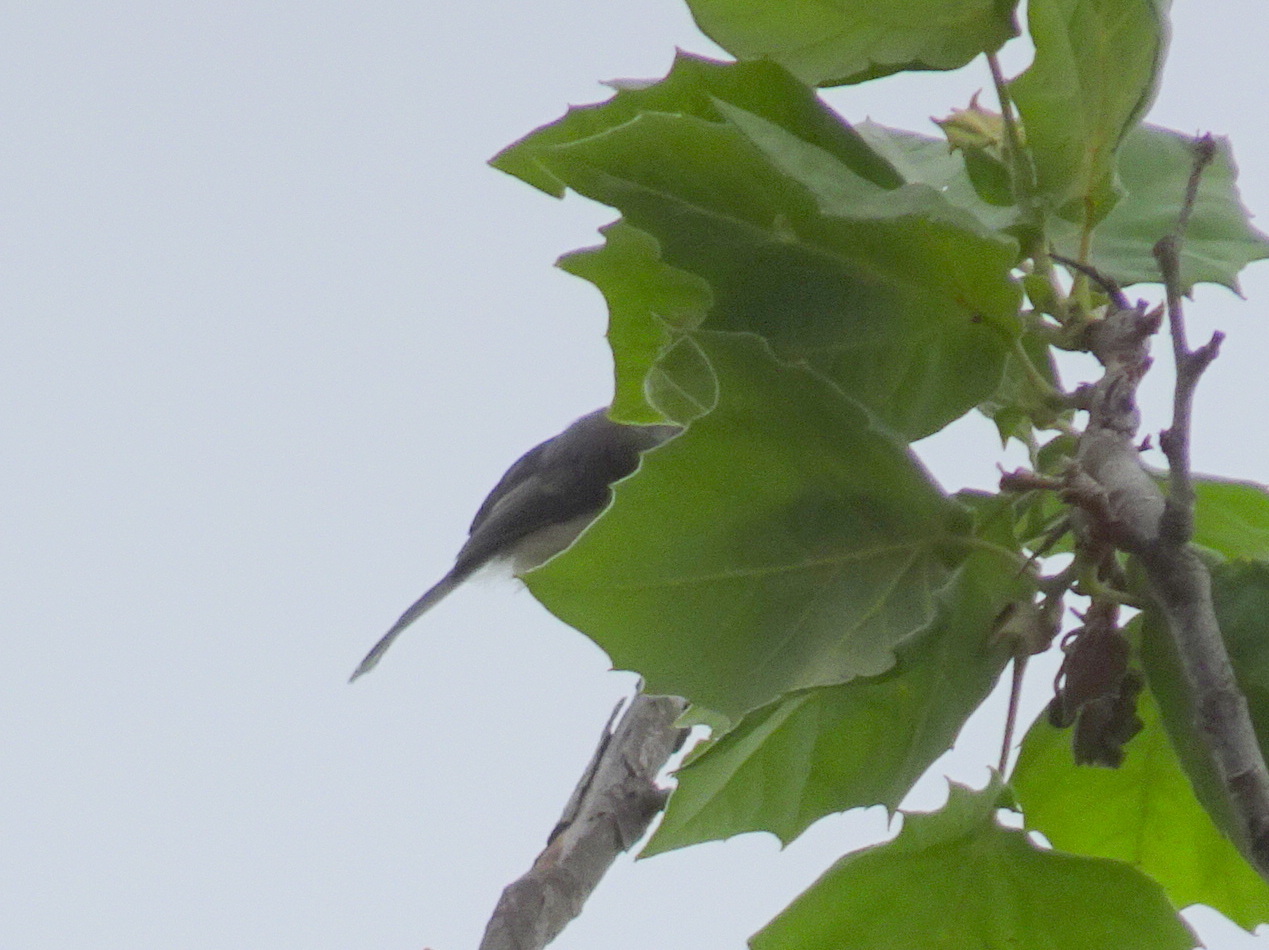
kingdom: Animalia
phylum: Chordata
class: Aves
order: Passeriformes
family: Paridae
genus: Poecile
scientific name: Poecile atricapillus
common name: Black-capped chickadee
